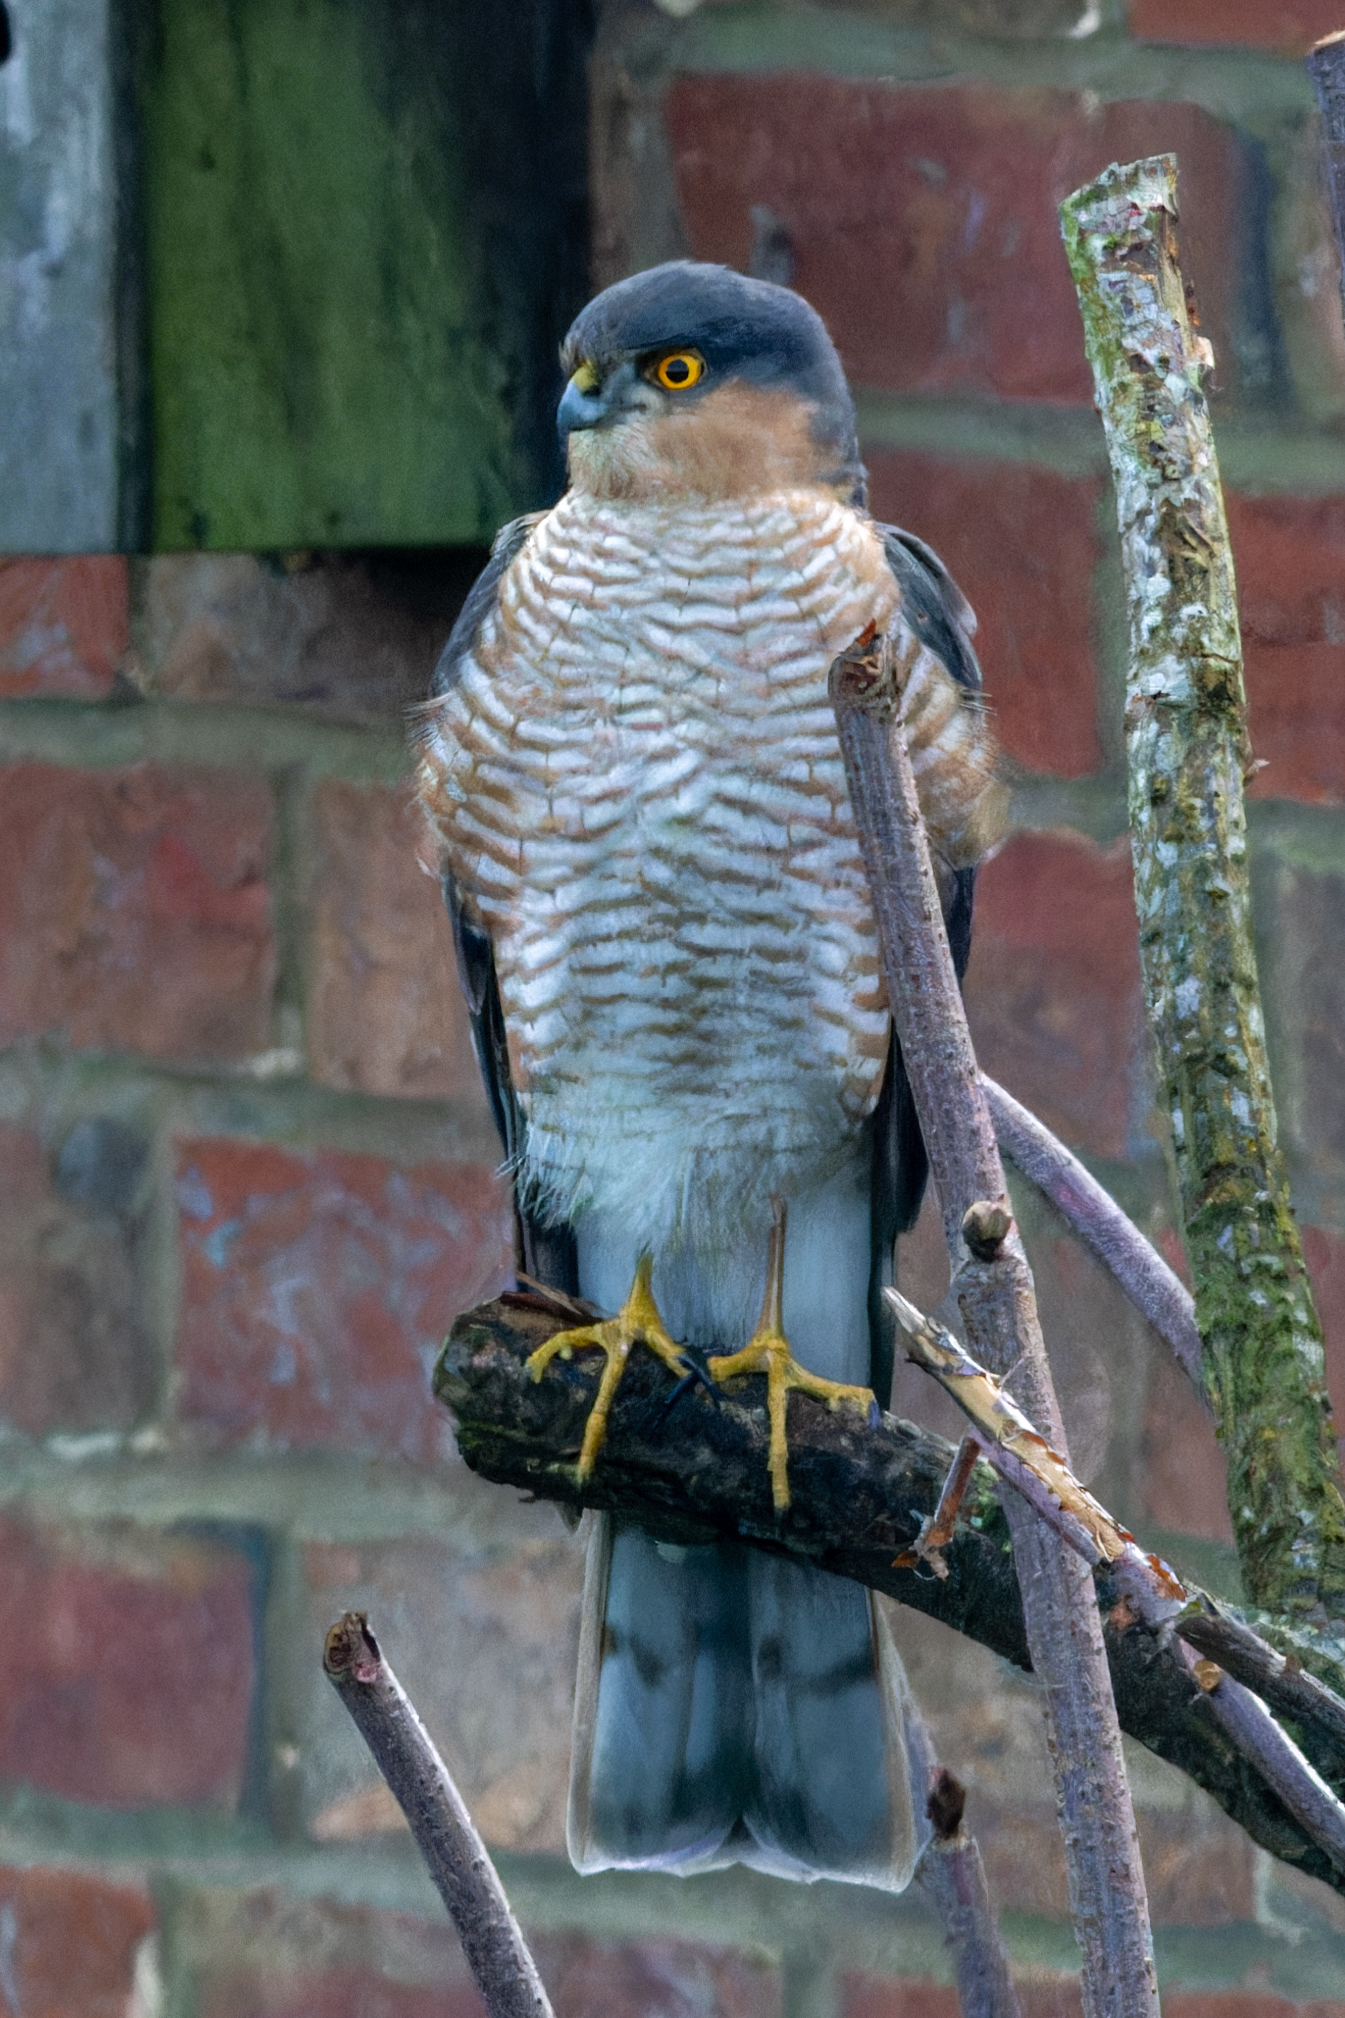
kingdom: Animalia
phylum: Chordata
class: Aves
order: Accipitriformes
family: Accipitridae
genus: Accipiter
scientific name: Accipiter nisus
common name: Eurasian sparrowhawk
